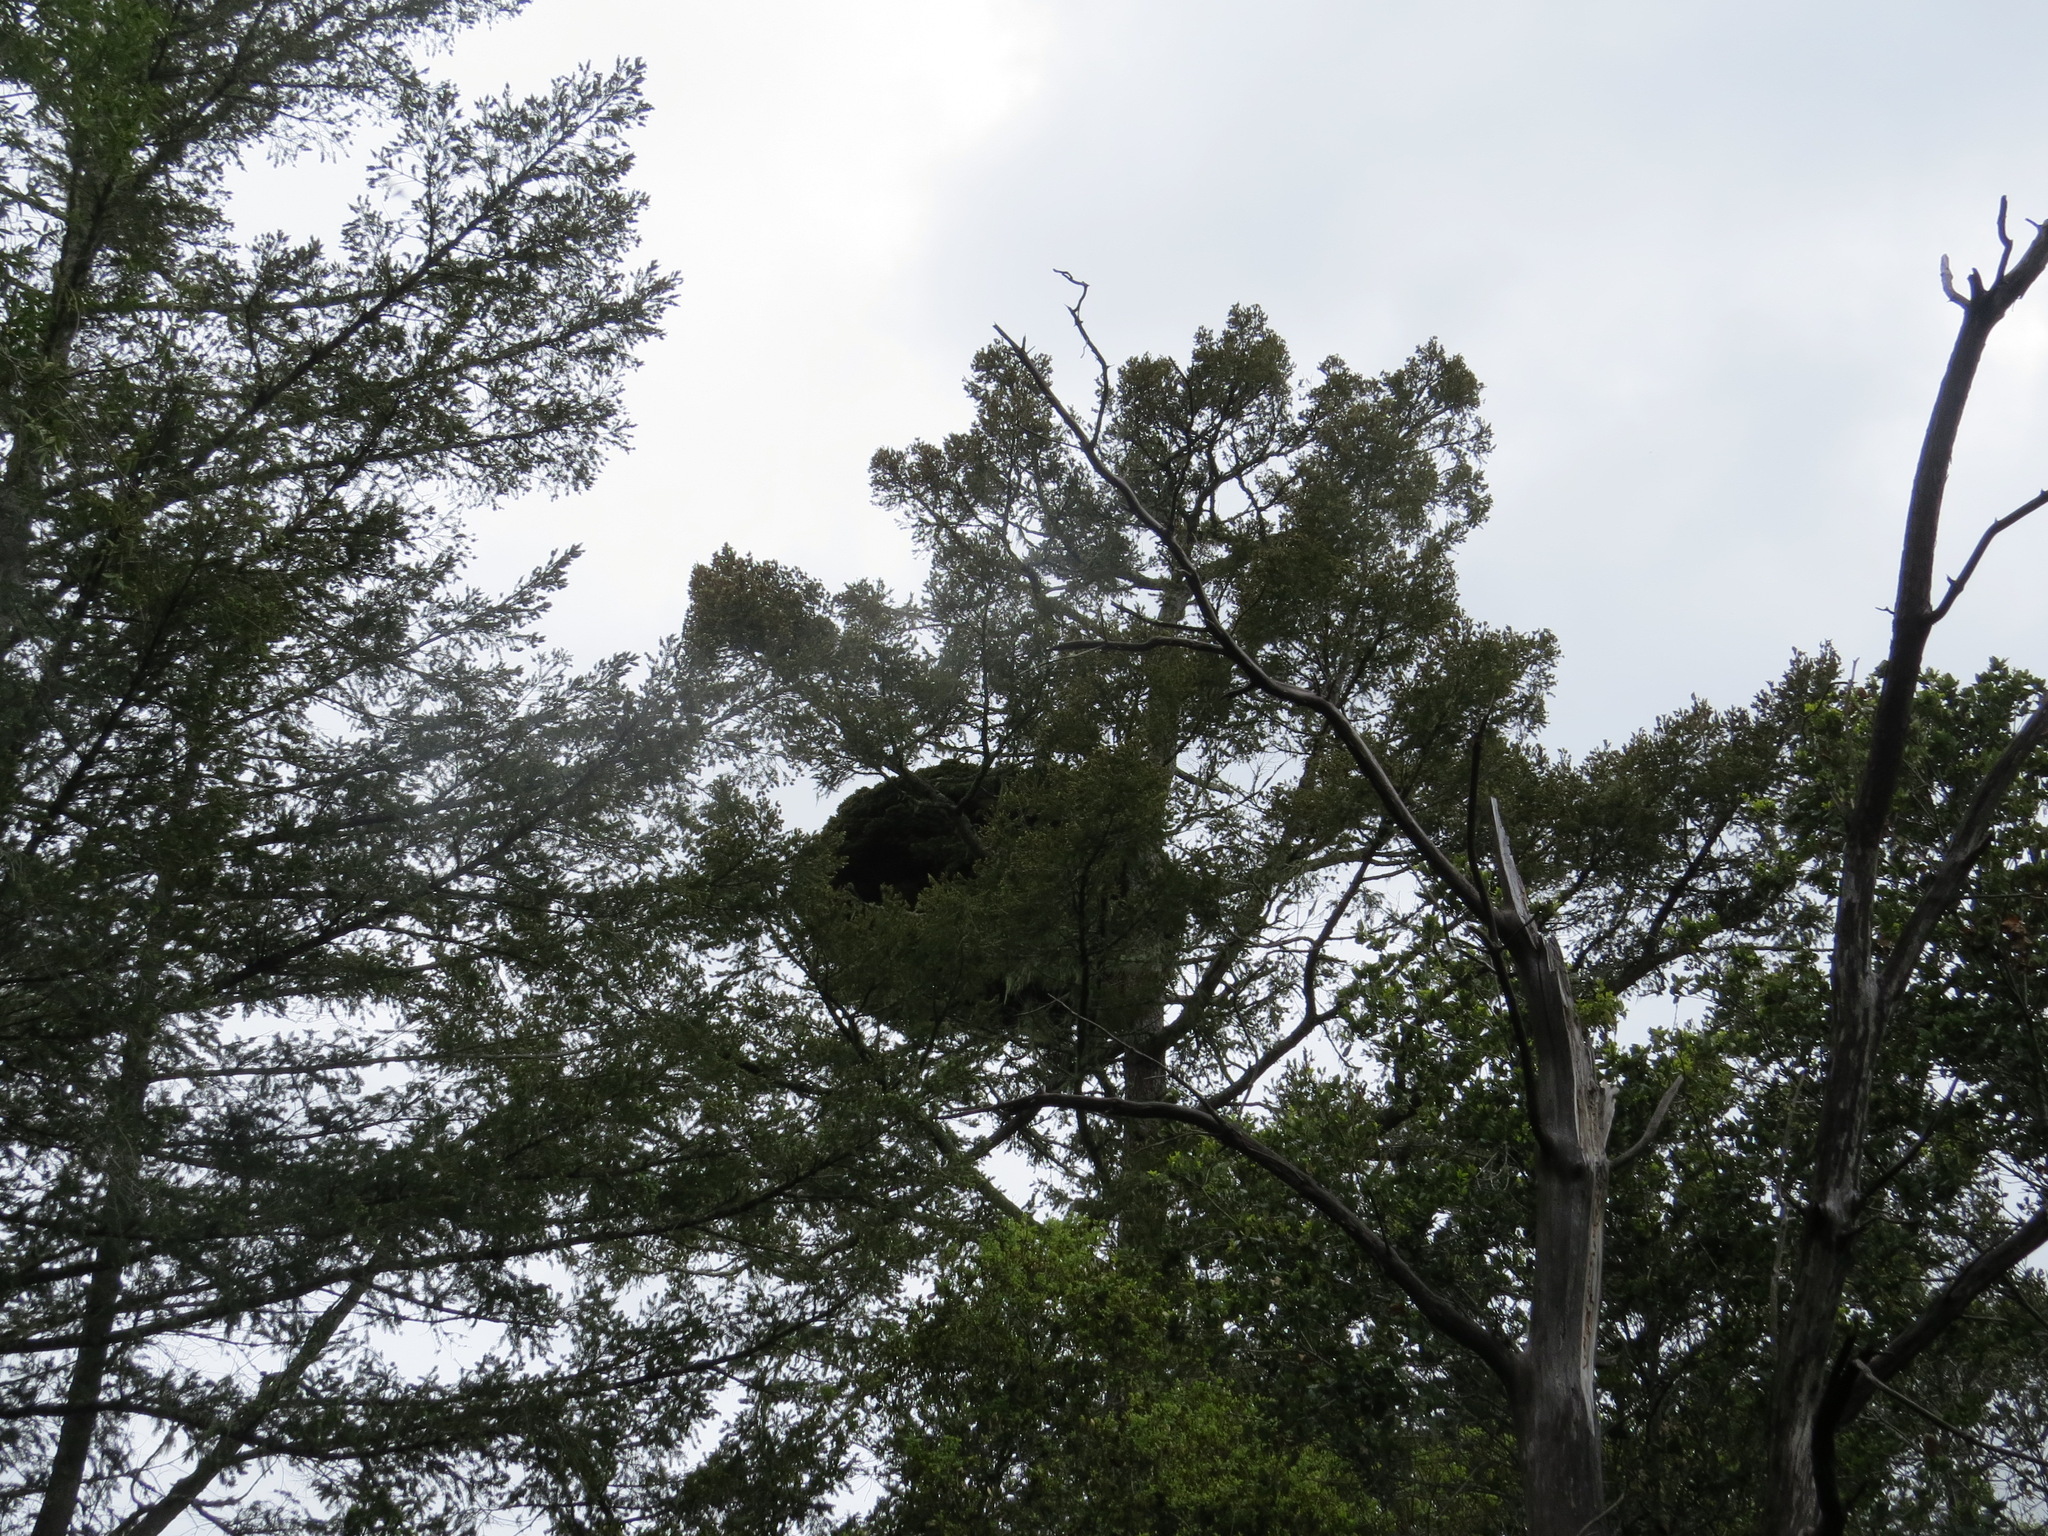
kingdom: Plantae
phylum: Tracheophyta
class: Pinopsida
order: Pinales
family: Pinaceae
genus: Pseudotsuga
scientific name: Pseudotsuga menziesii
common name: Douglas fir
